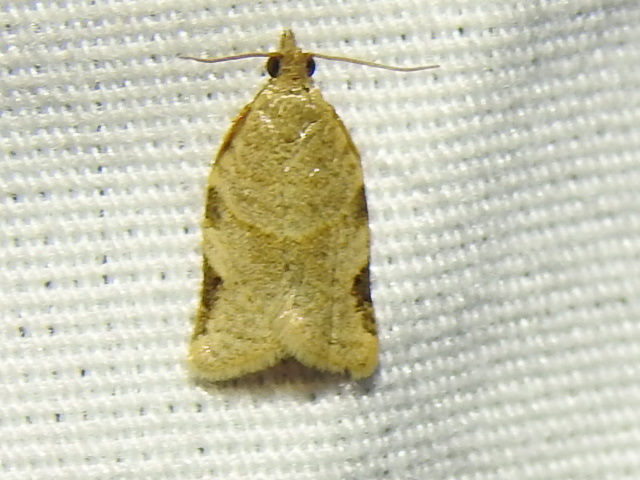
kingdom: Animalia
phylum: Arthropoda
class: Insecta
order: Lepidoptera
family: Tortricidae
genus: Clepsis
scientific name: Clepsis virescana
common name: Greenish apple moth
